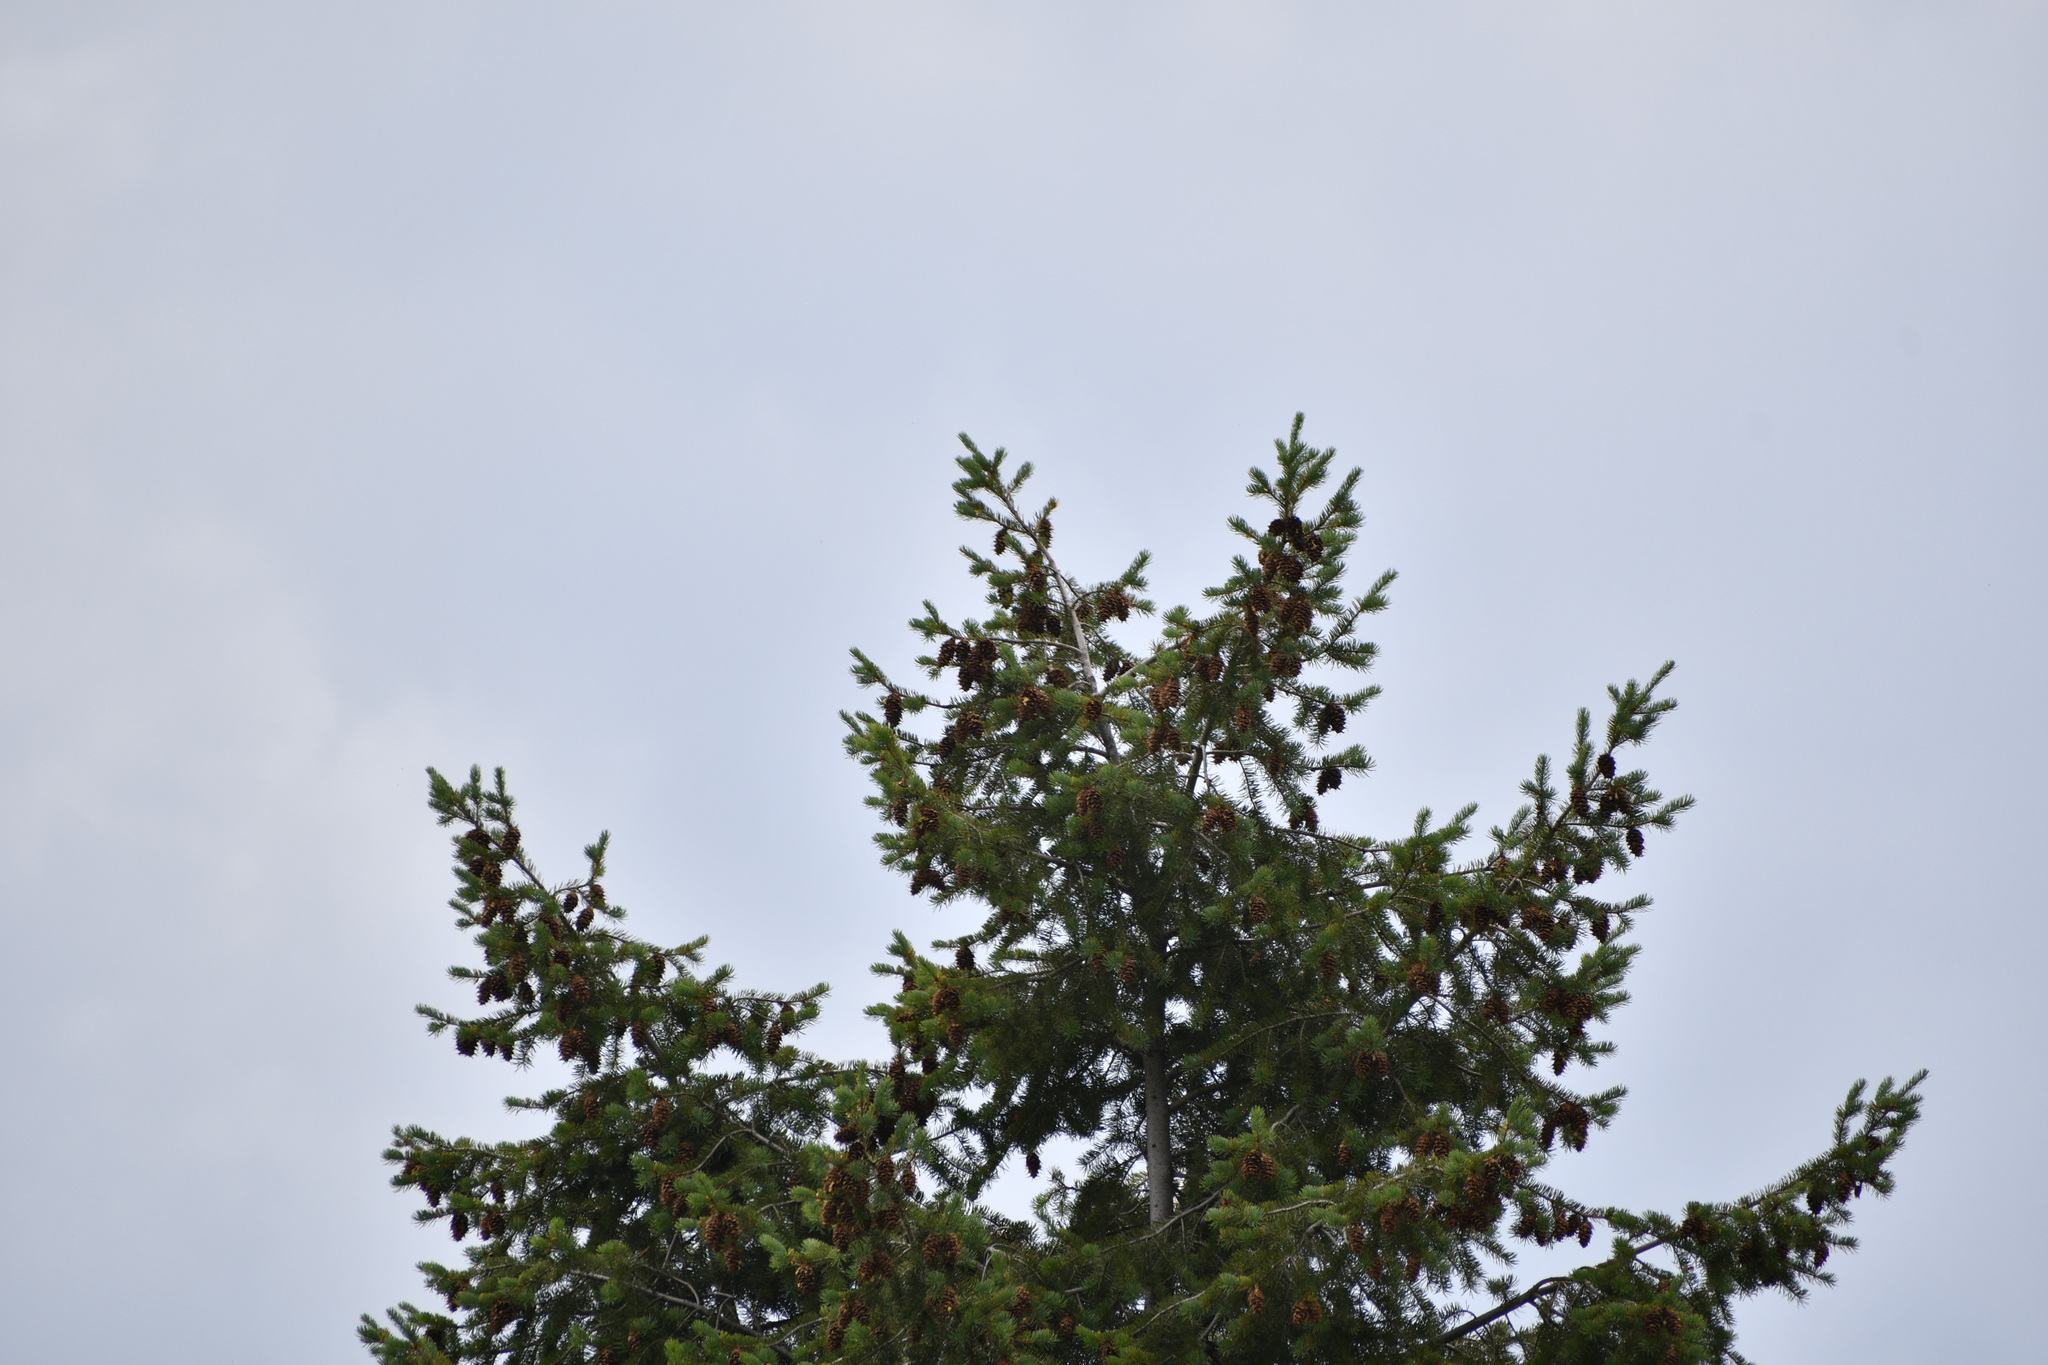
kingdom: Plantae
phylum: Tracheophyta
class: Pinopsida
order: Pinales
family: Pinaceae
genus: Pseudotsuga
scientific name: Pseudotsuga menziesii
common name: Douglas fir
